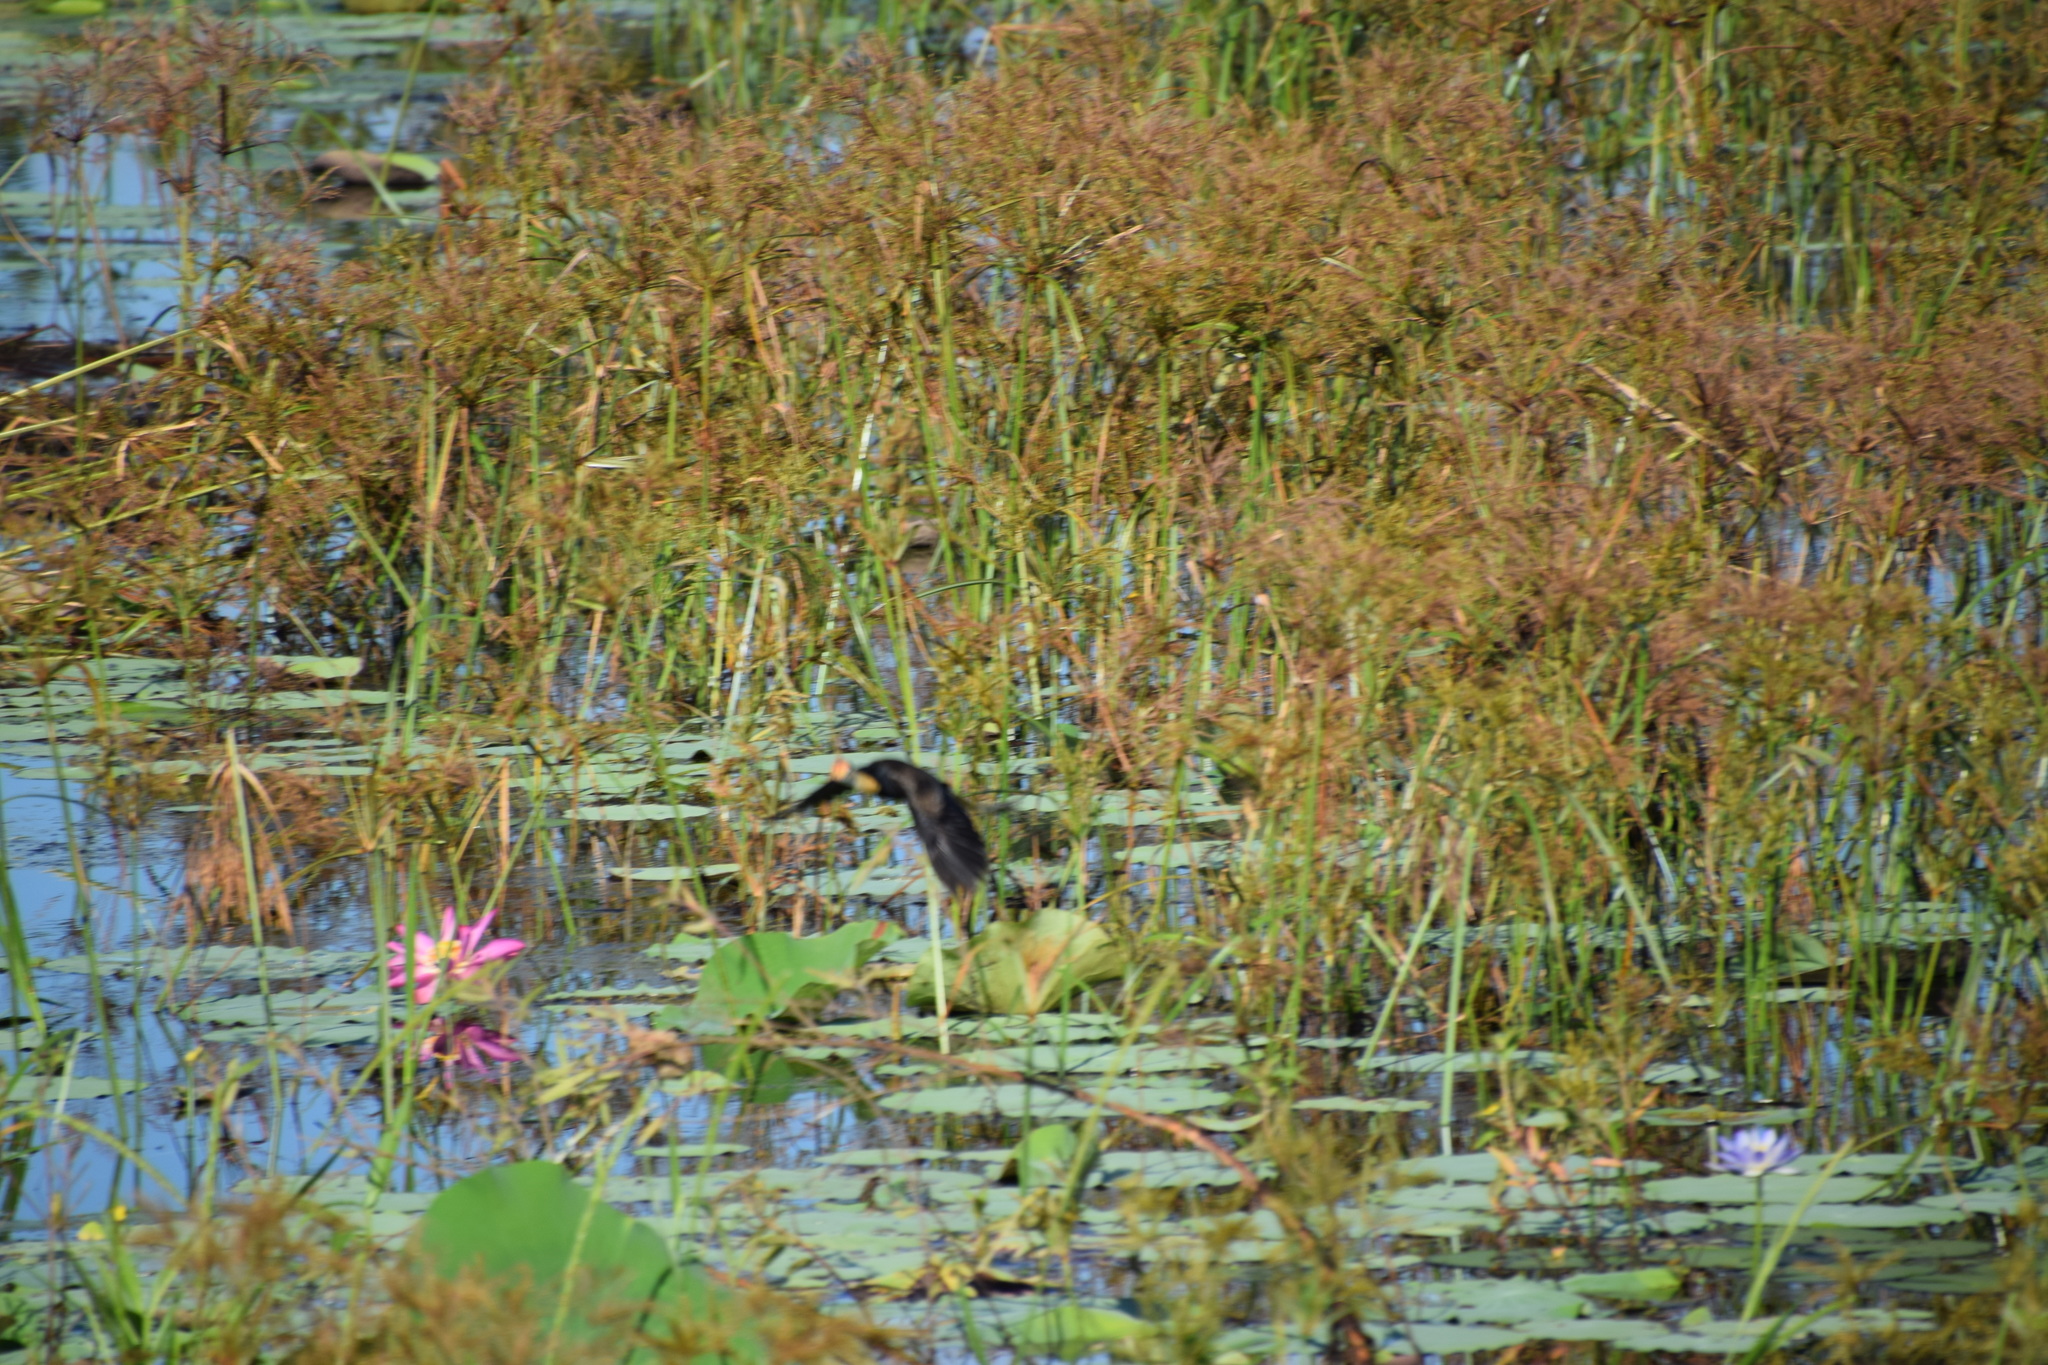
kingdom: Animalia
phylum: Chordata
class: Aves
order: Charadriiformes
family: Jacanidae
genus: Irediparra
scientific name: Irediparra gallinacea
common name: Comb-crested jacana
